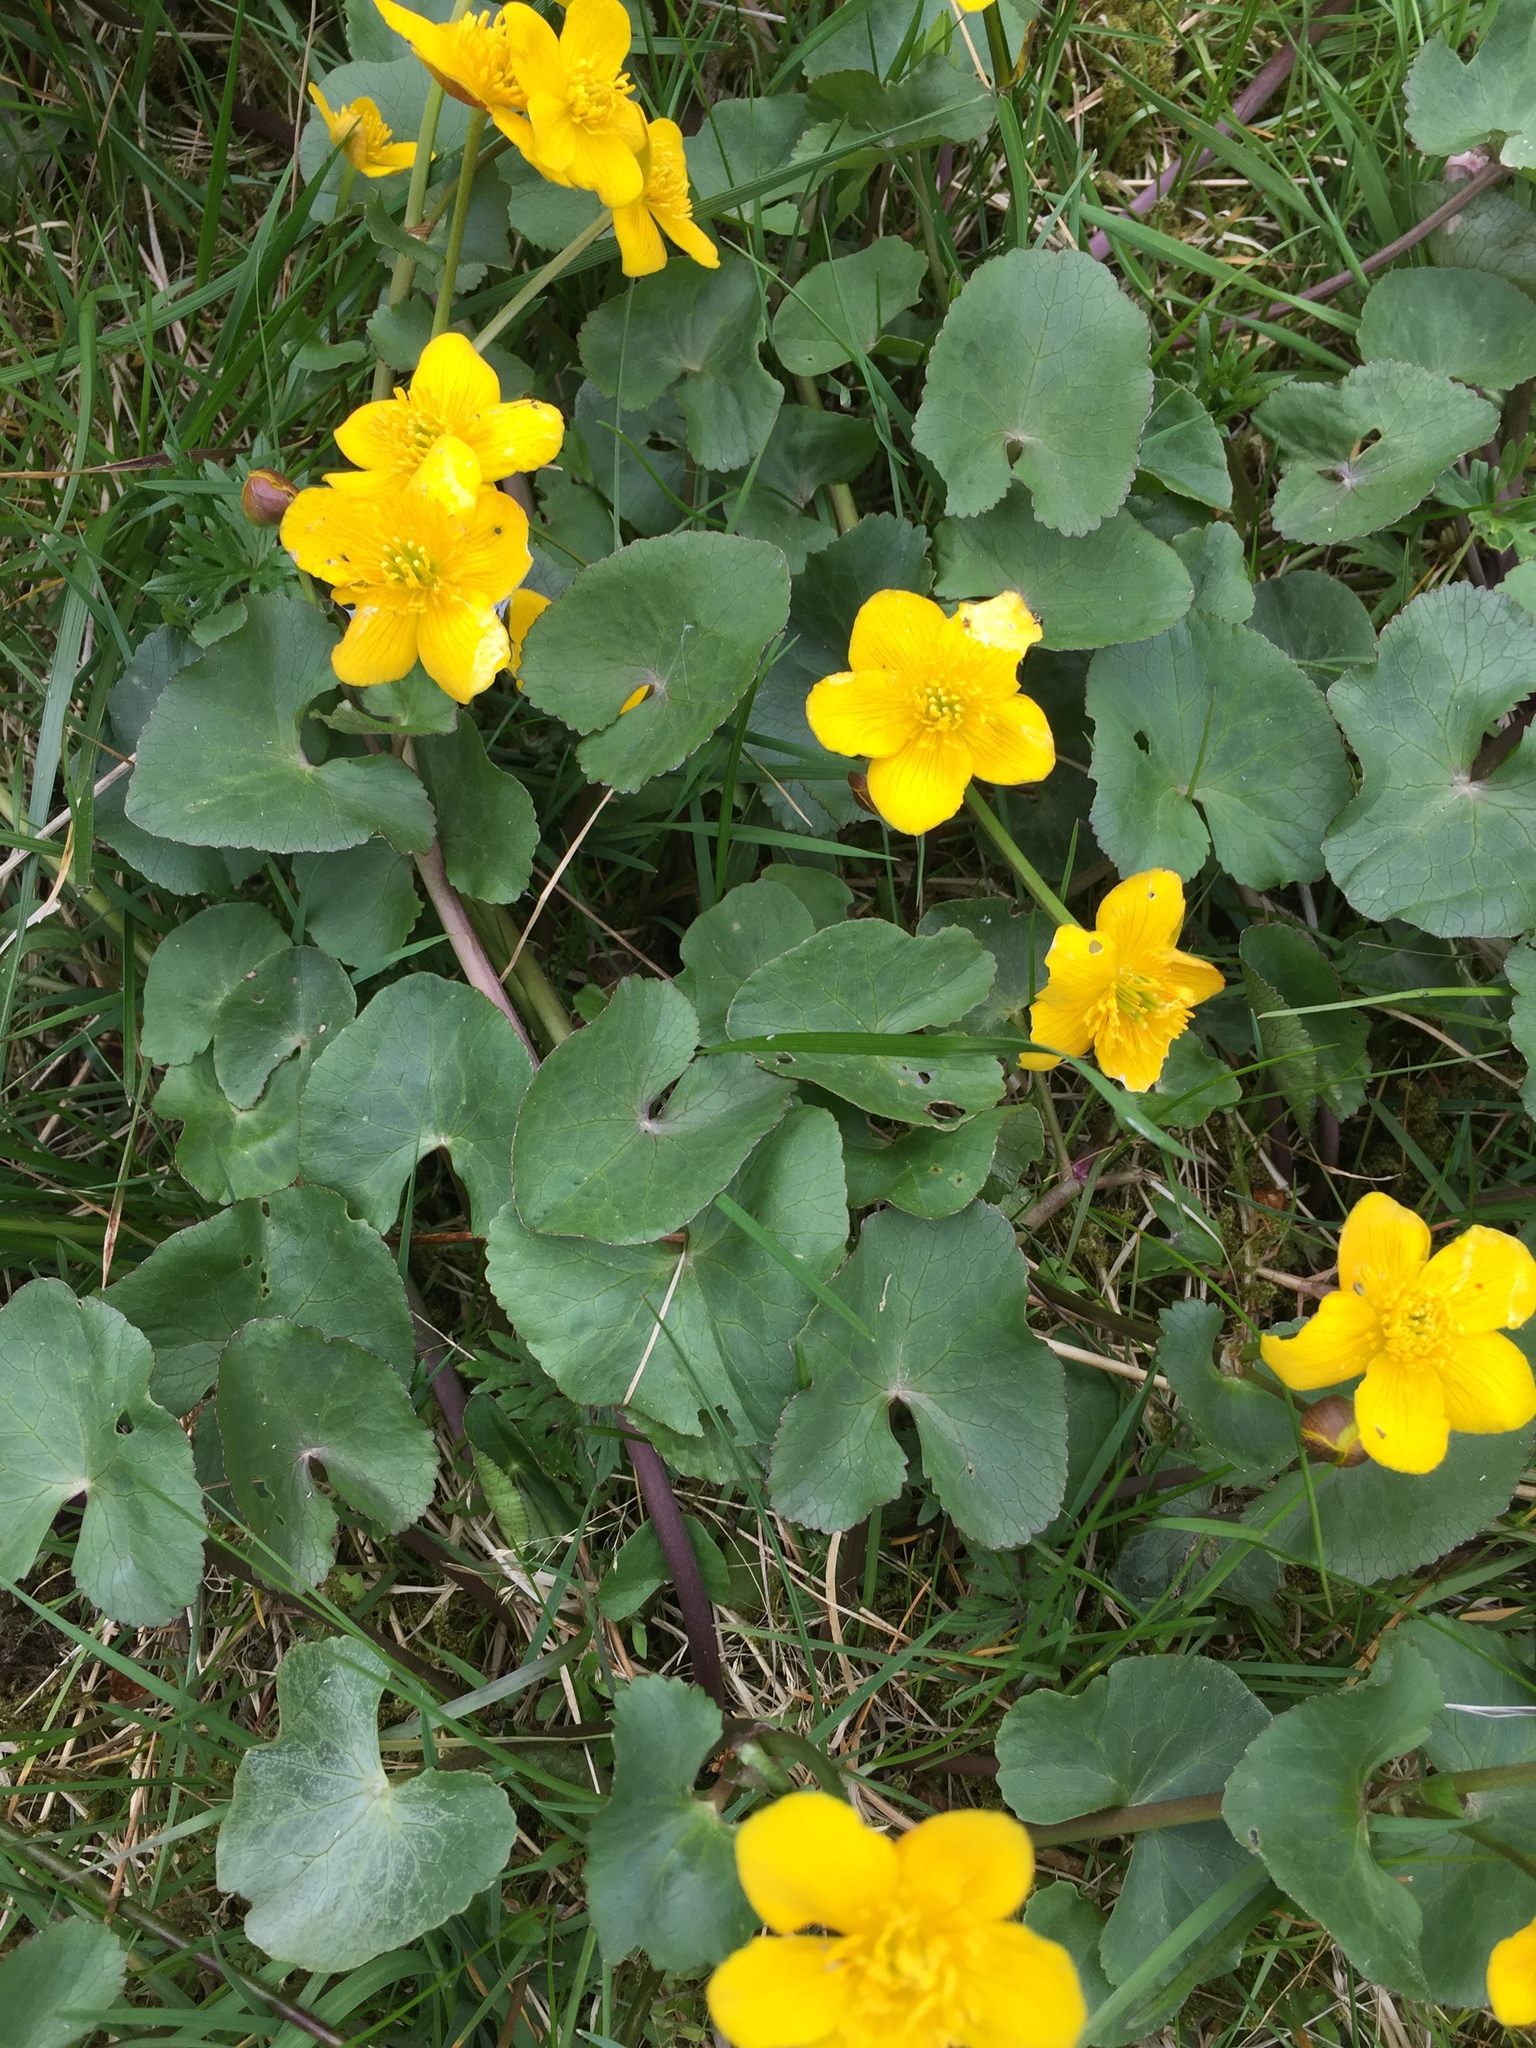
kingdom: Plantae
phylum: Tracheophyta
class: Magnoliopsida
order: Ranunculales
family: Ranunculaceae
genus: Caltha
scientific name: Caltha palustris
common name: Marsh marigold
